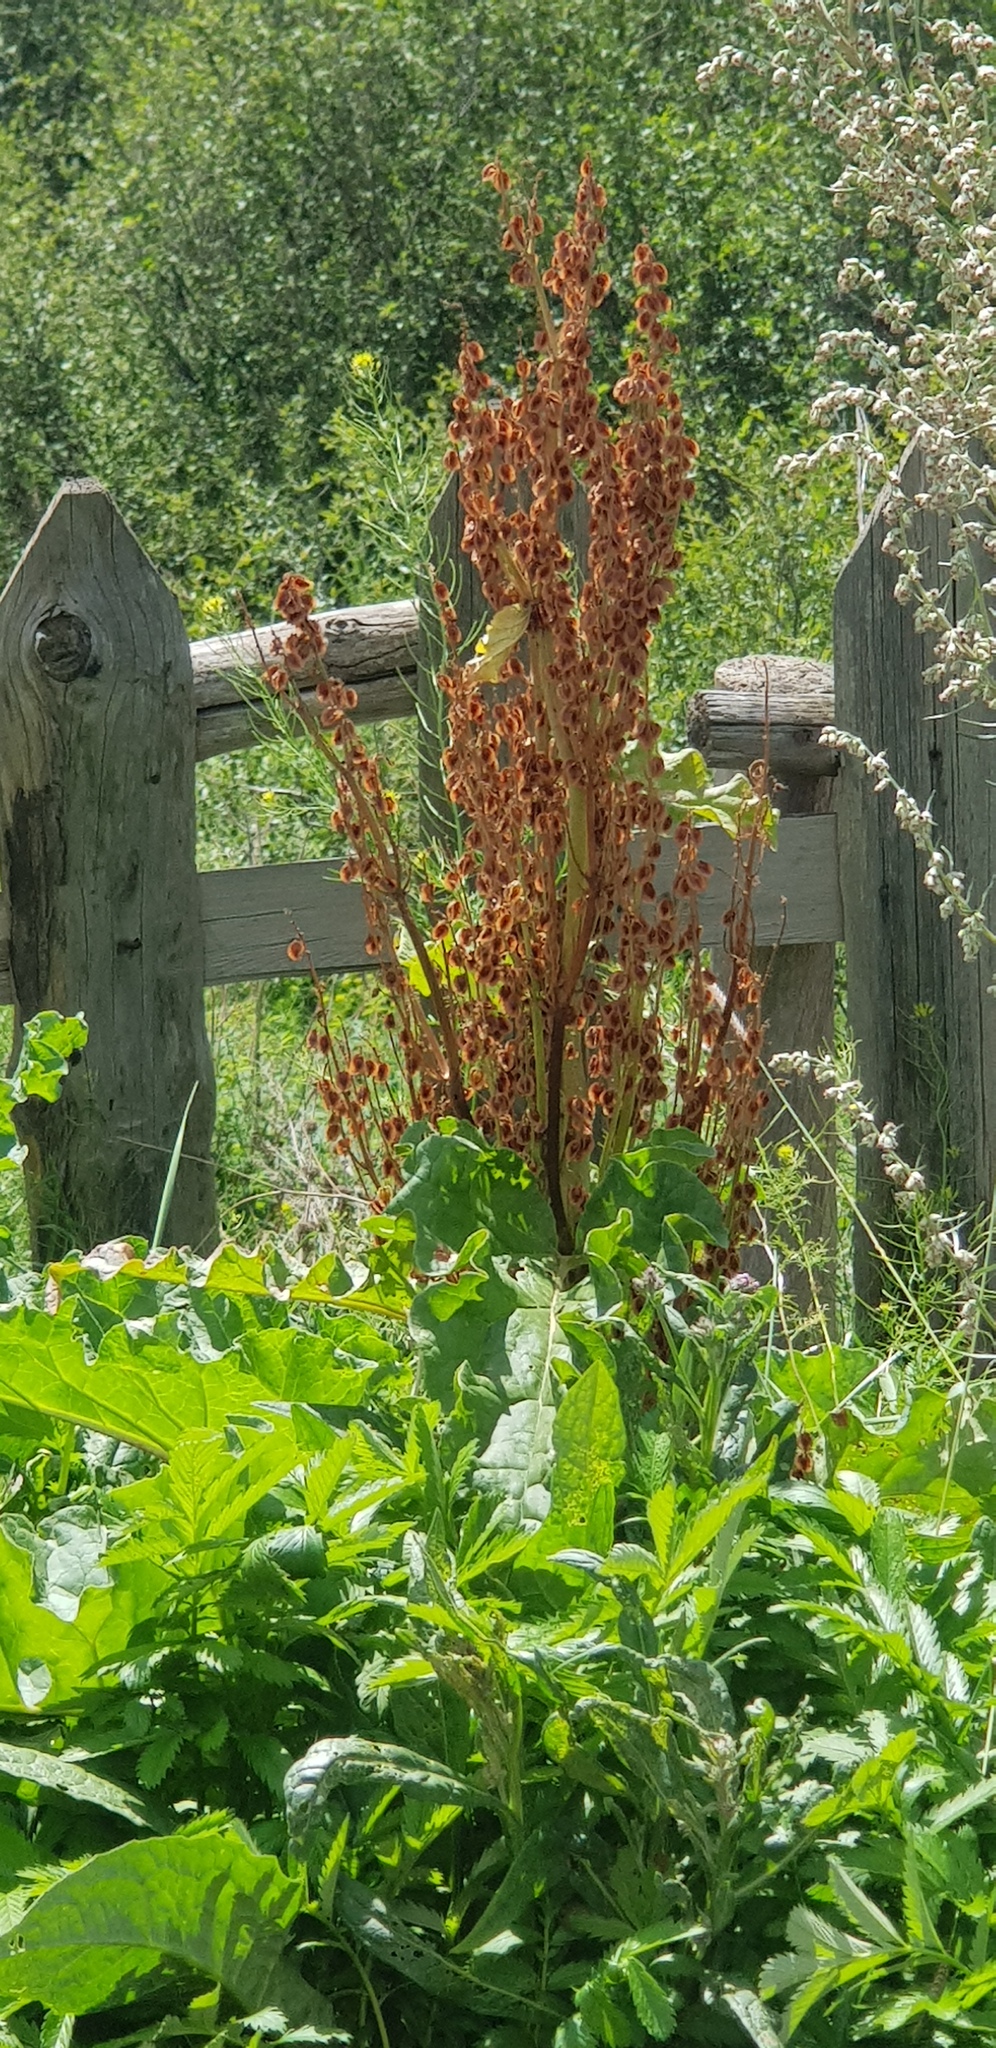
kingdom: Plantae
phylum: Tracheophyta
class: Magnoliopsida
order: Caryophyllales
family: Polygonaceae
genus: Rheum
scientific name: Rheum rhabarbarum
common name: Garden rhubarb
